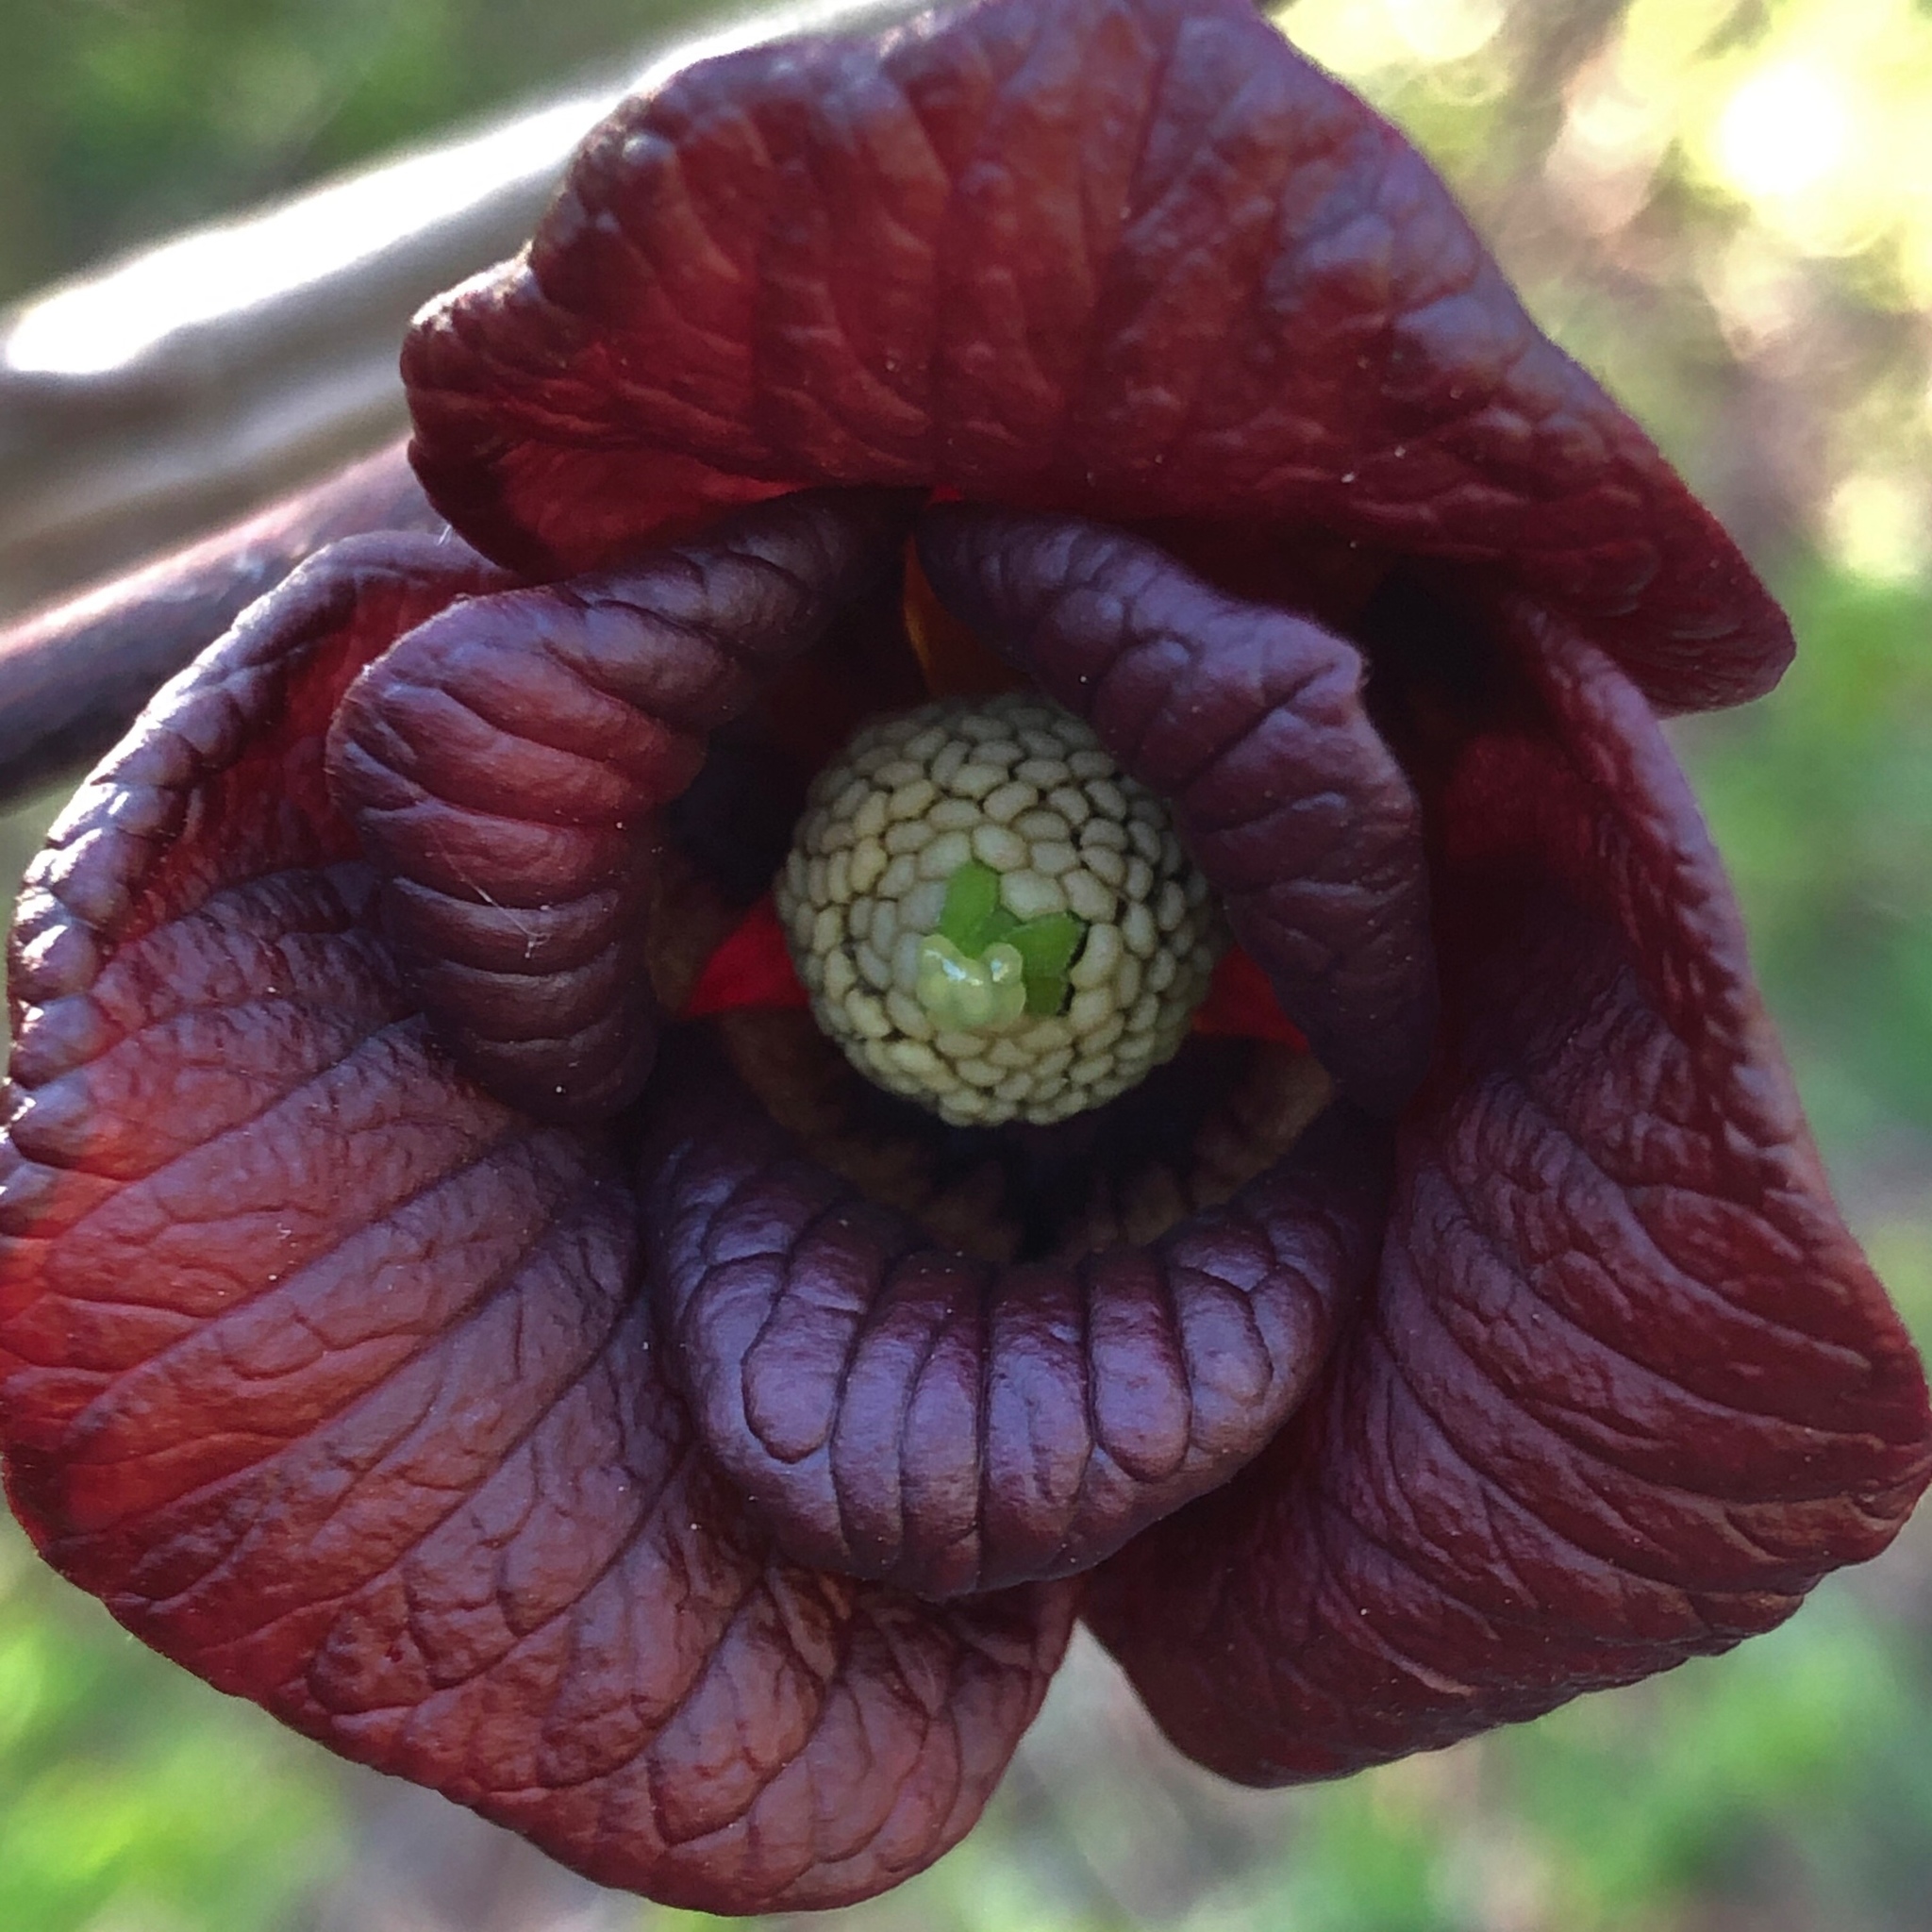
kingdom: Plantae
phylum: Tracheophyta
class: Magnoliopsida
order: Magnoliales
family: Annonaceae
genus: Asimina
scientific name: Asimina triloba
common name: Dog-banana
